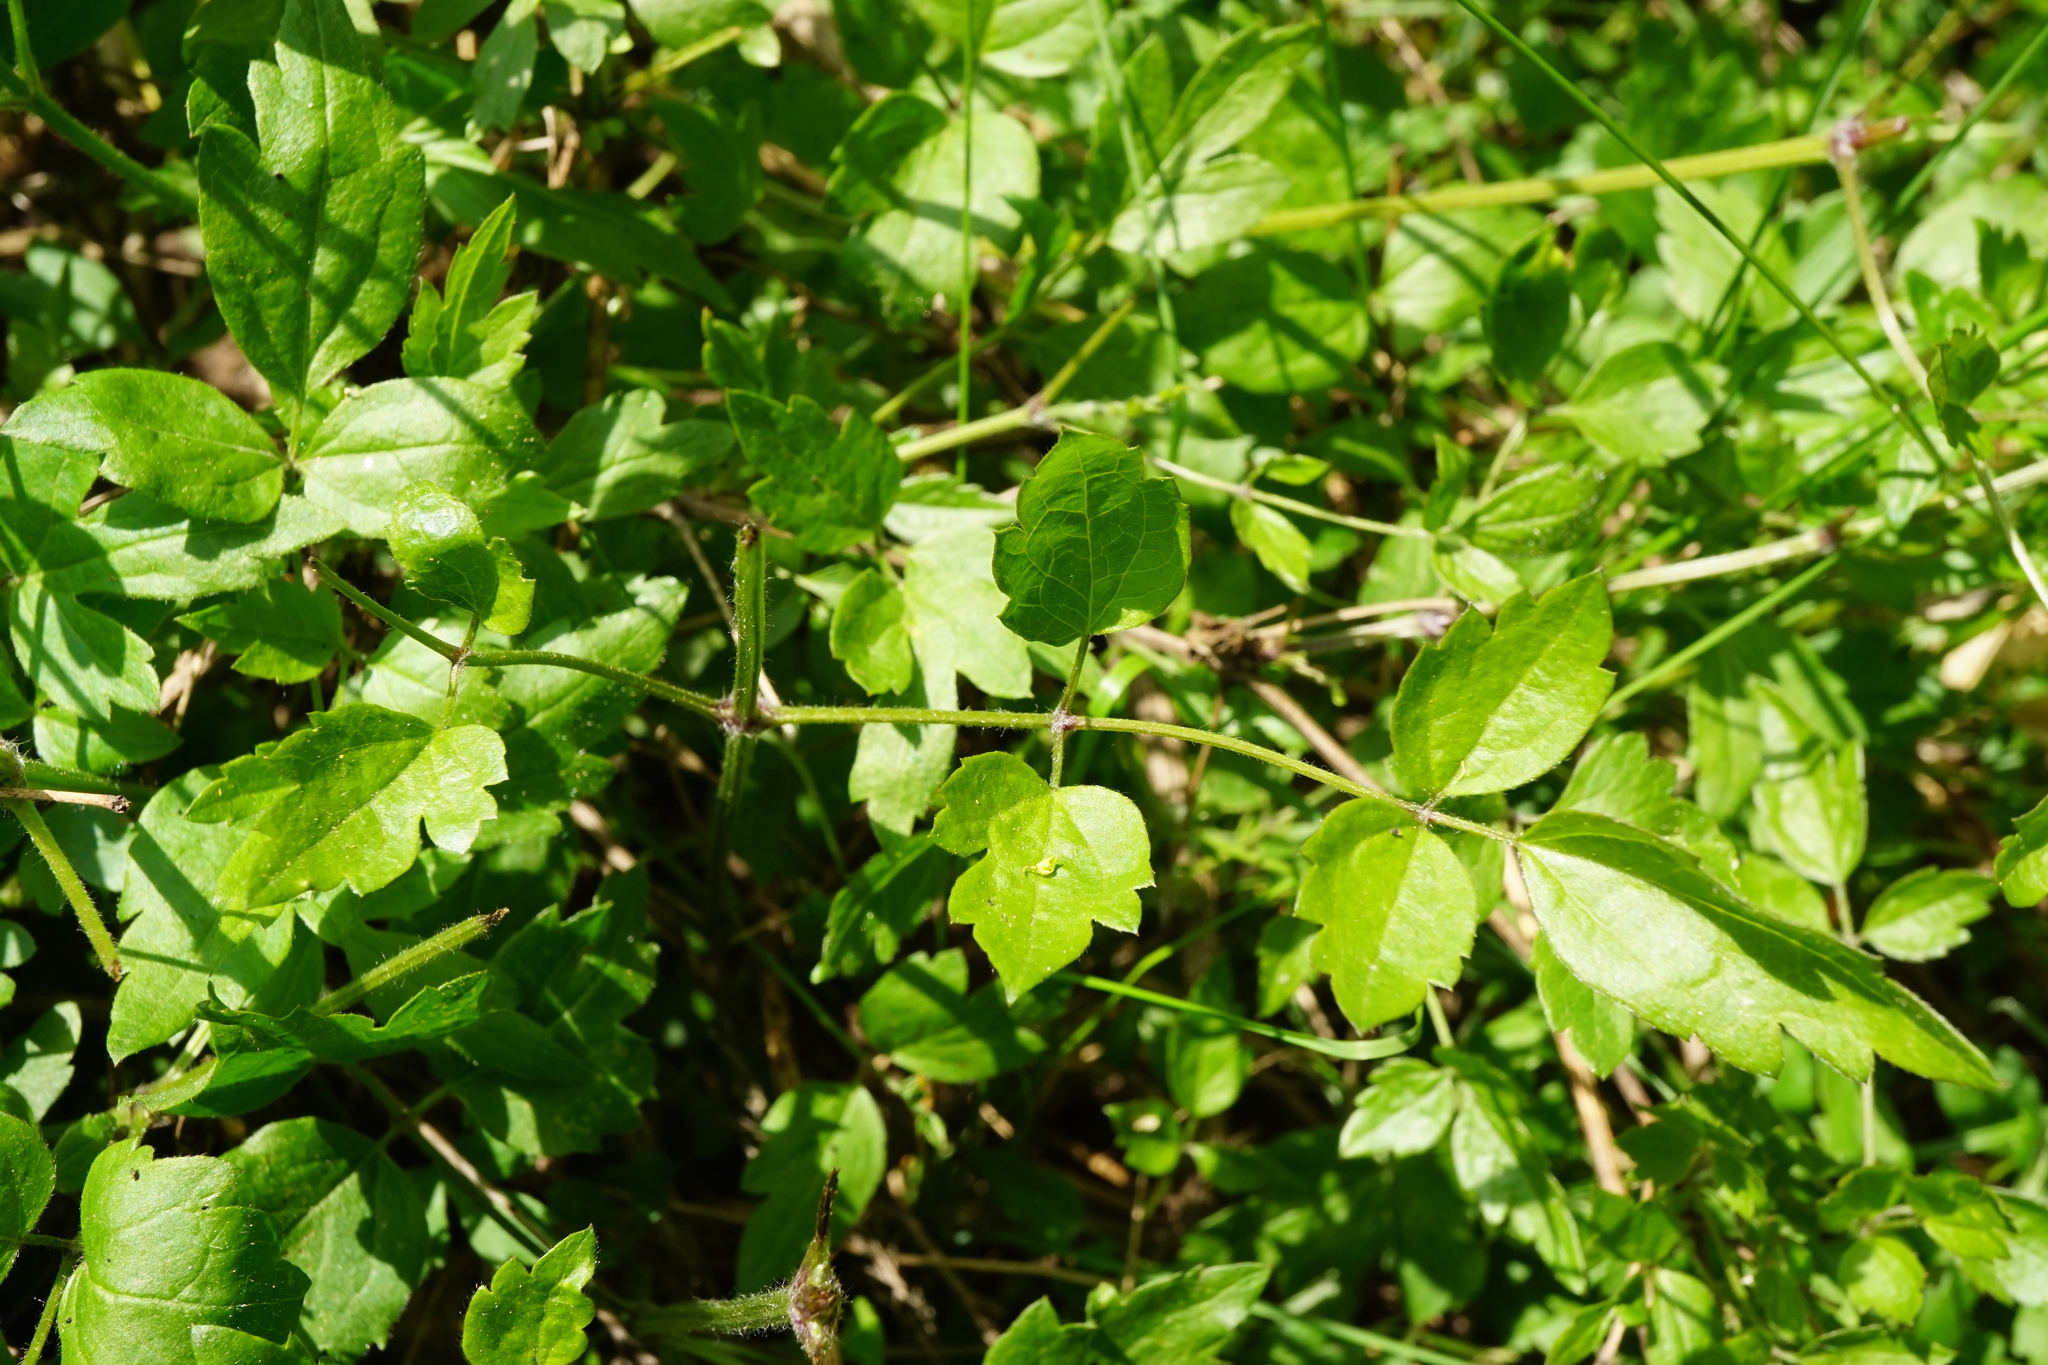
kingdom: Plantae
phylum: Tracheophyta
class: Magnoliopsida
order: Ranunculales
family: Ranunculaceae
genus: Clematis
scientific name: Clematis vitalba
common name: Evergreen clematis
